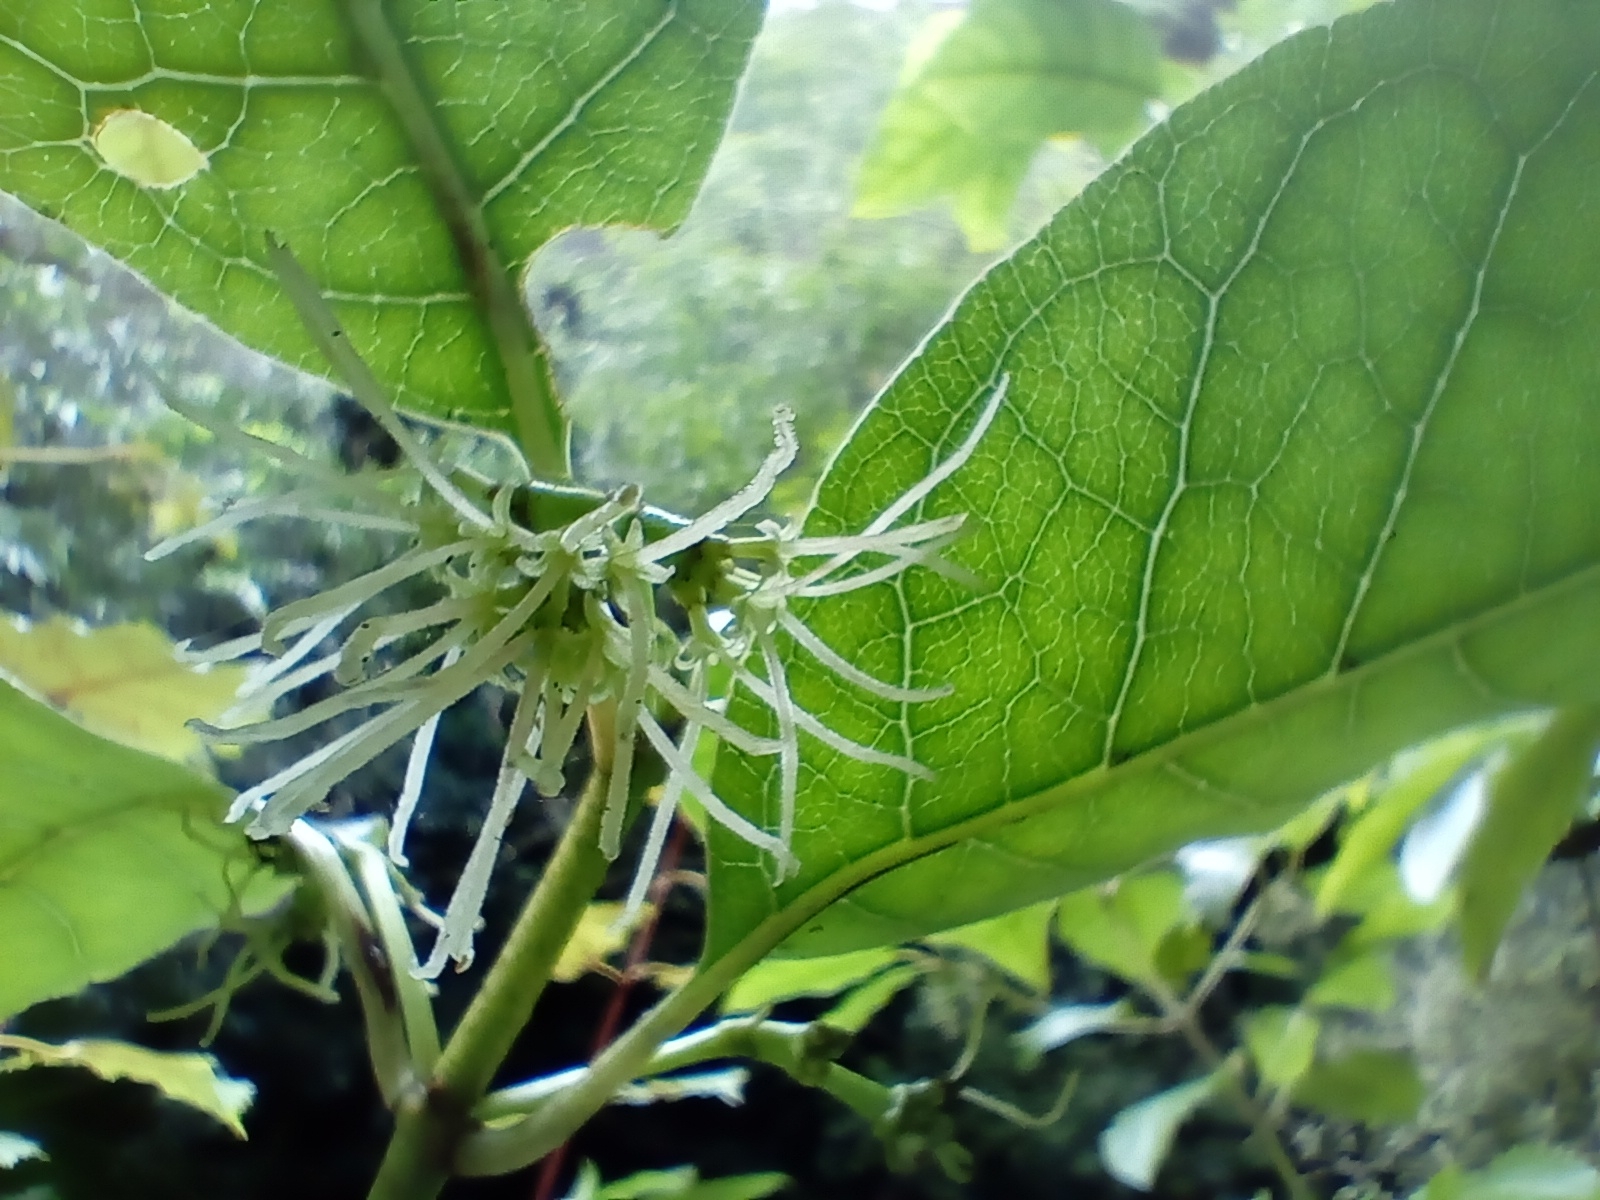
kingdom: Plantae
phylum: Tracheophyta
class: Magnoliopsida
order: Gentianales
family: Rubiaceae
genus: Coprosma
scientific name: Coprosma autumnalis
